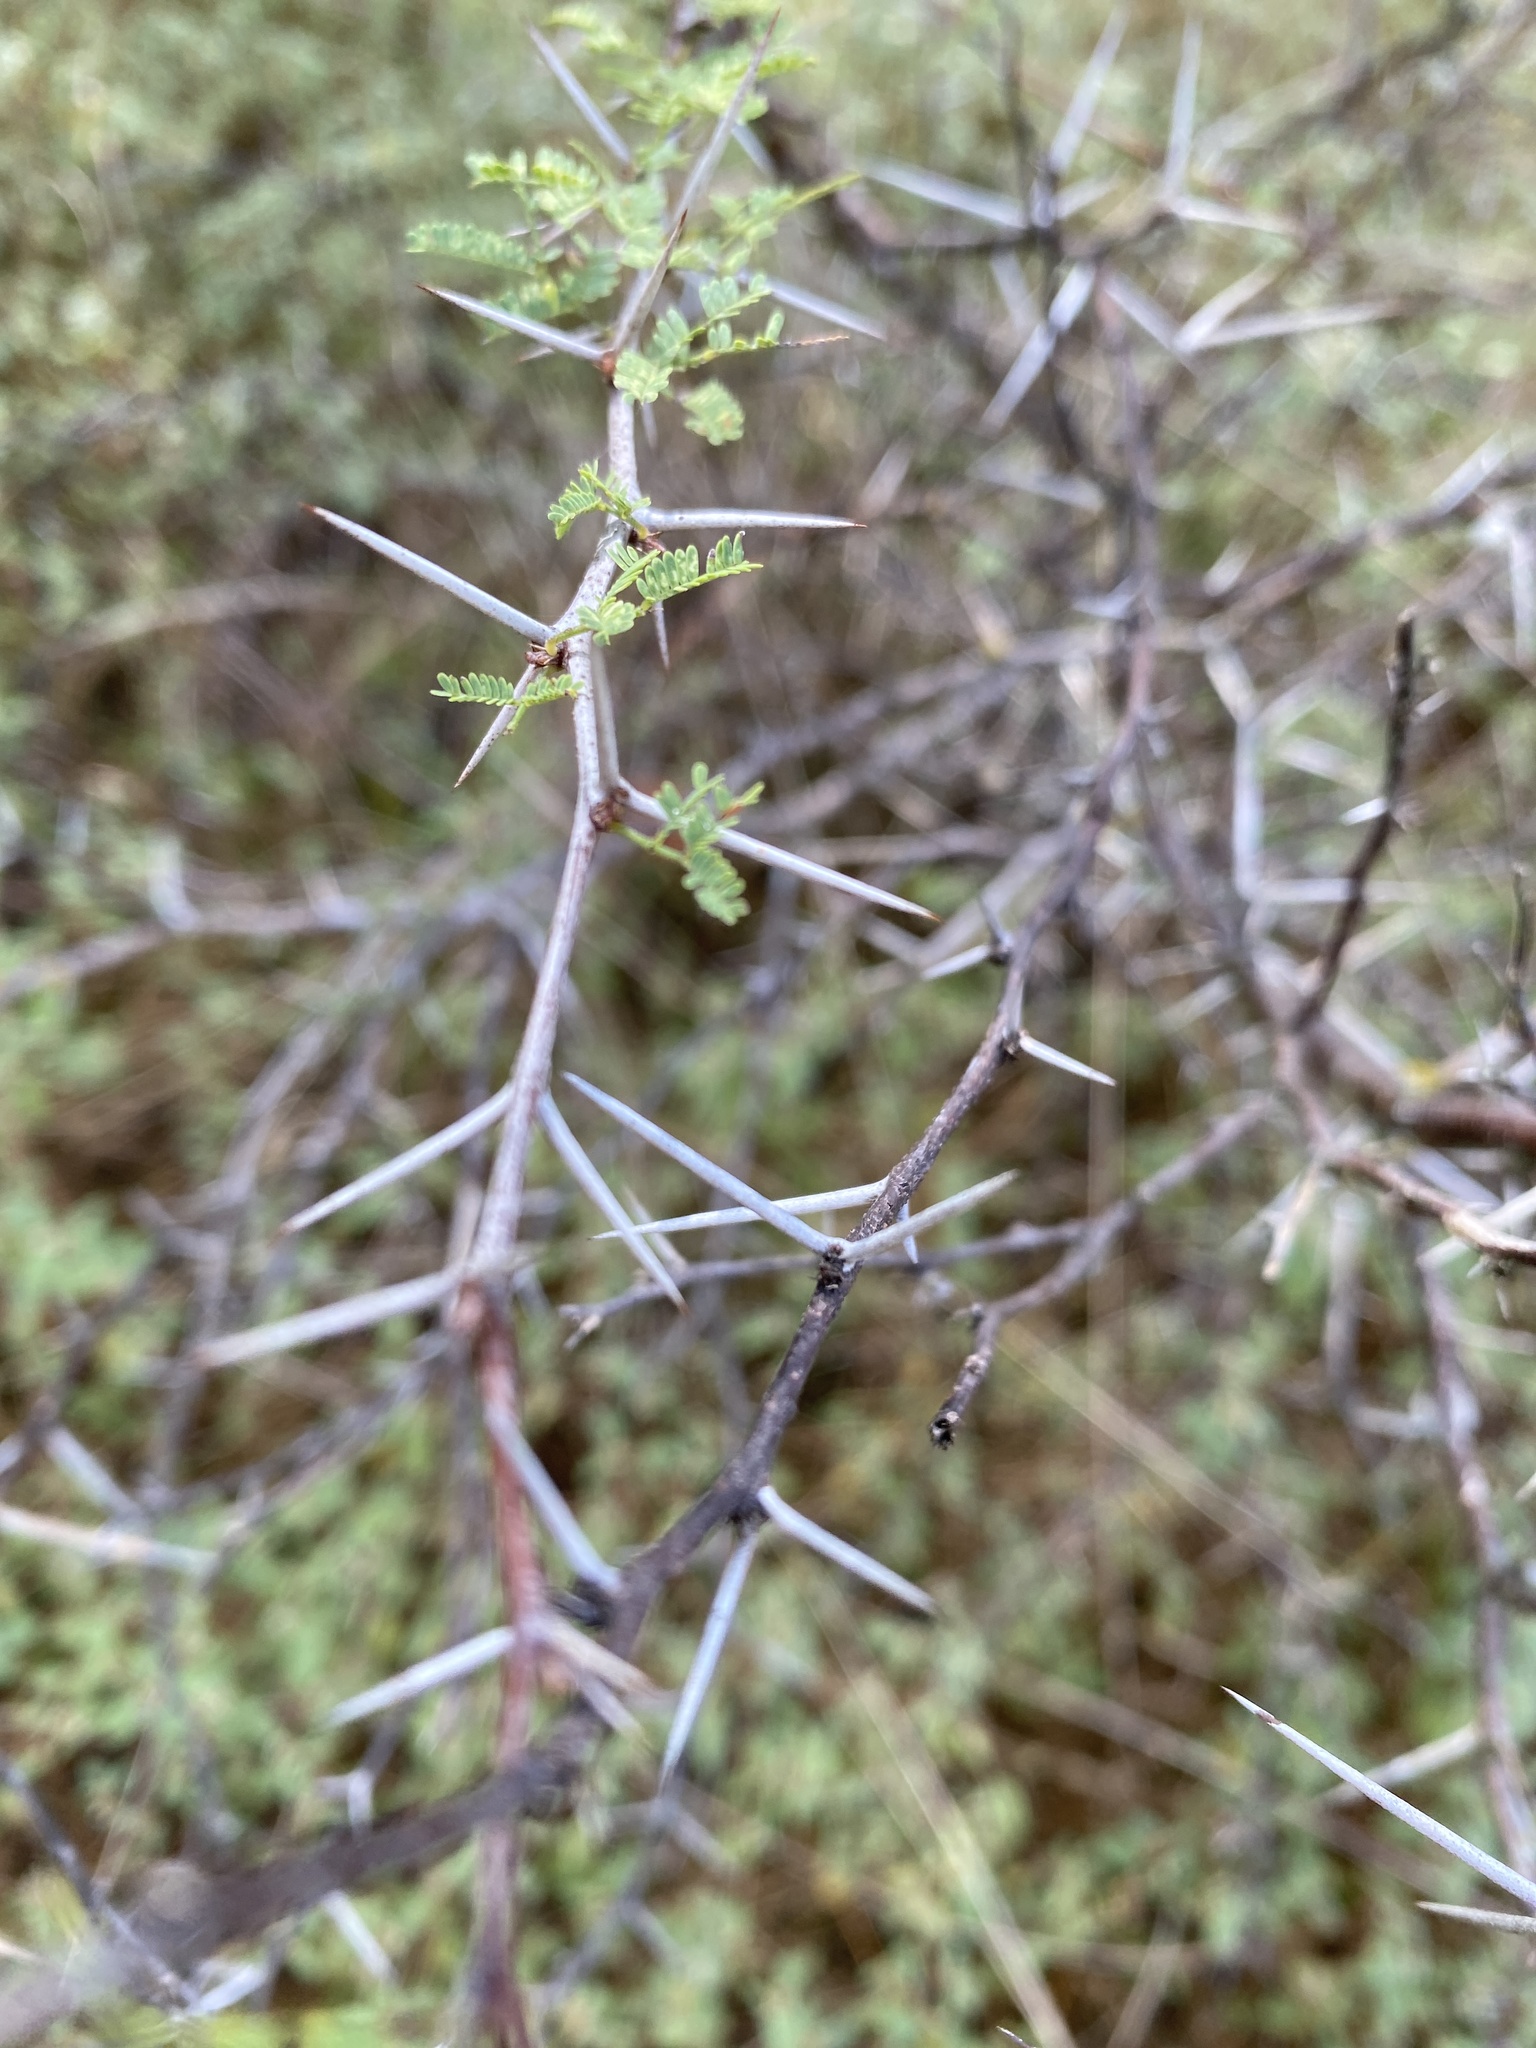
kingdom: Plantae
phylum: Tracheophyta
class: Magnoliopsida
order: Fabales
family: Fabaceae
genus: Vachellia
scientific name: Vachellia farnesiana
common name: Sweet acacia
